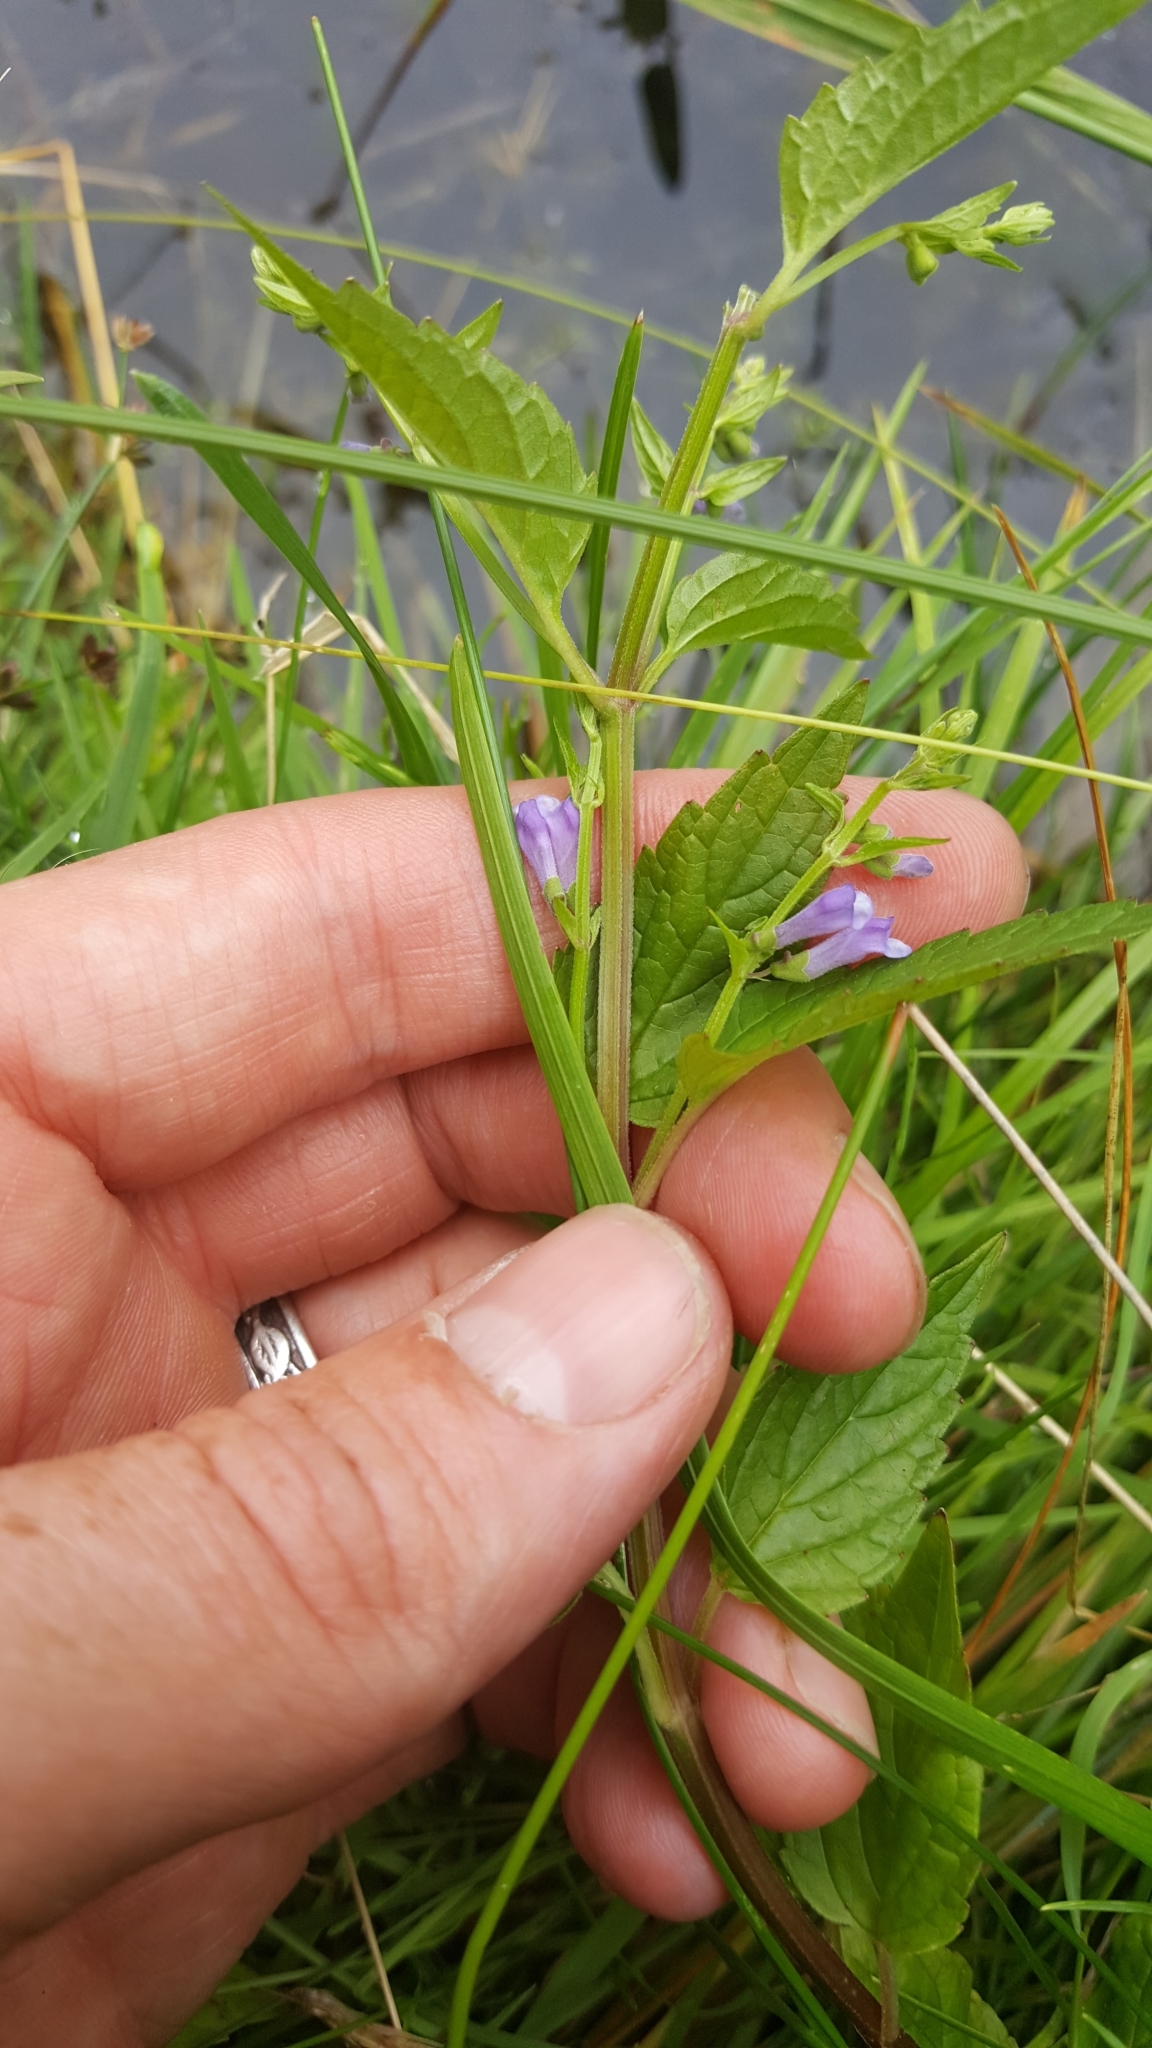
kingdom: Plantae
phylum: Tracheophyta
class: Magnoliopsida
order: Lamiales
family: Lamiaceae
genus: Scutellaria
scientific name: Scutellaria lateriflora
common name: Blue skullcap
